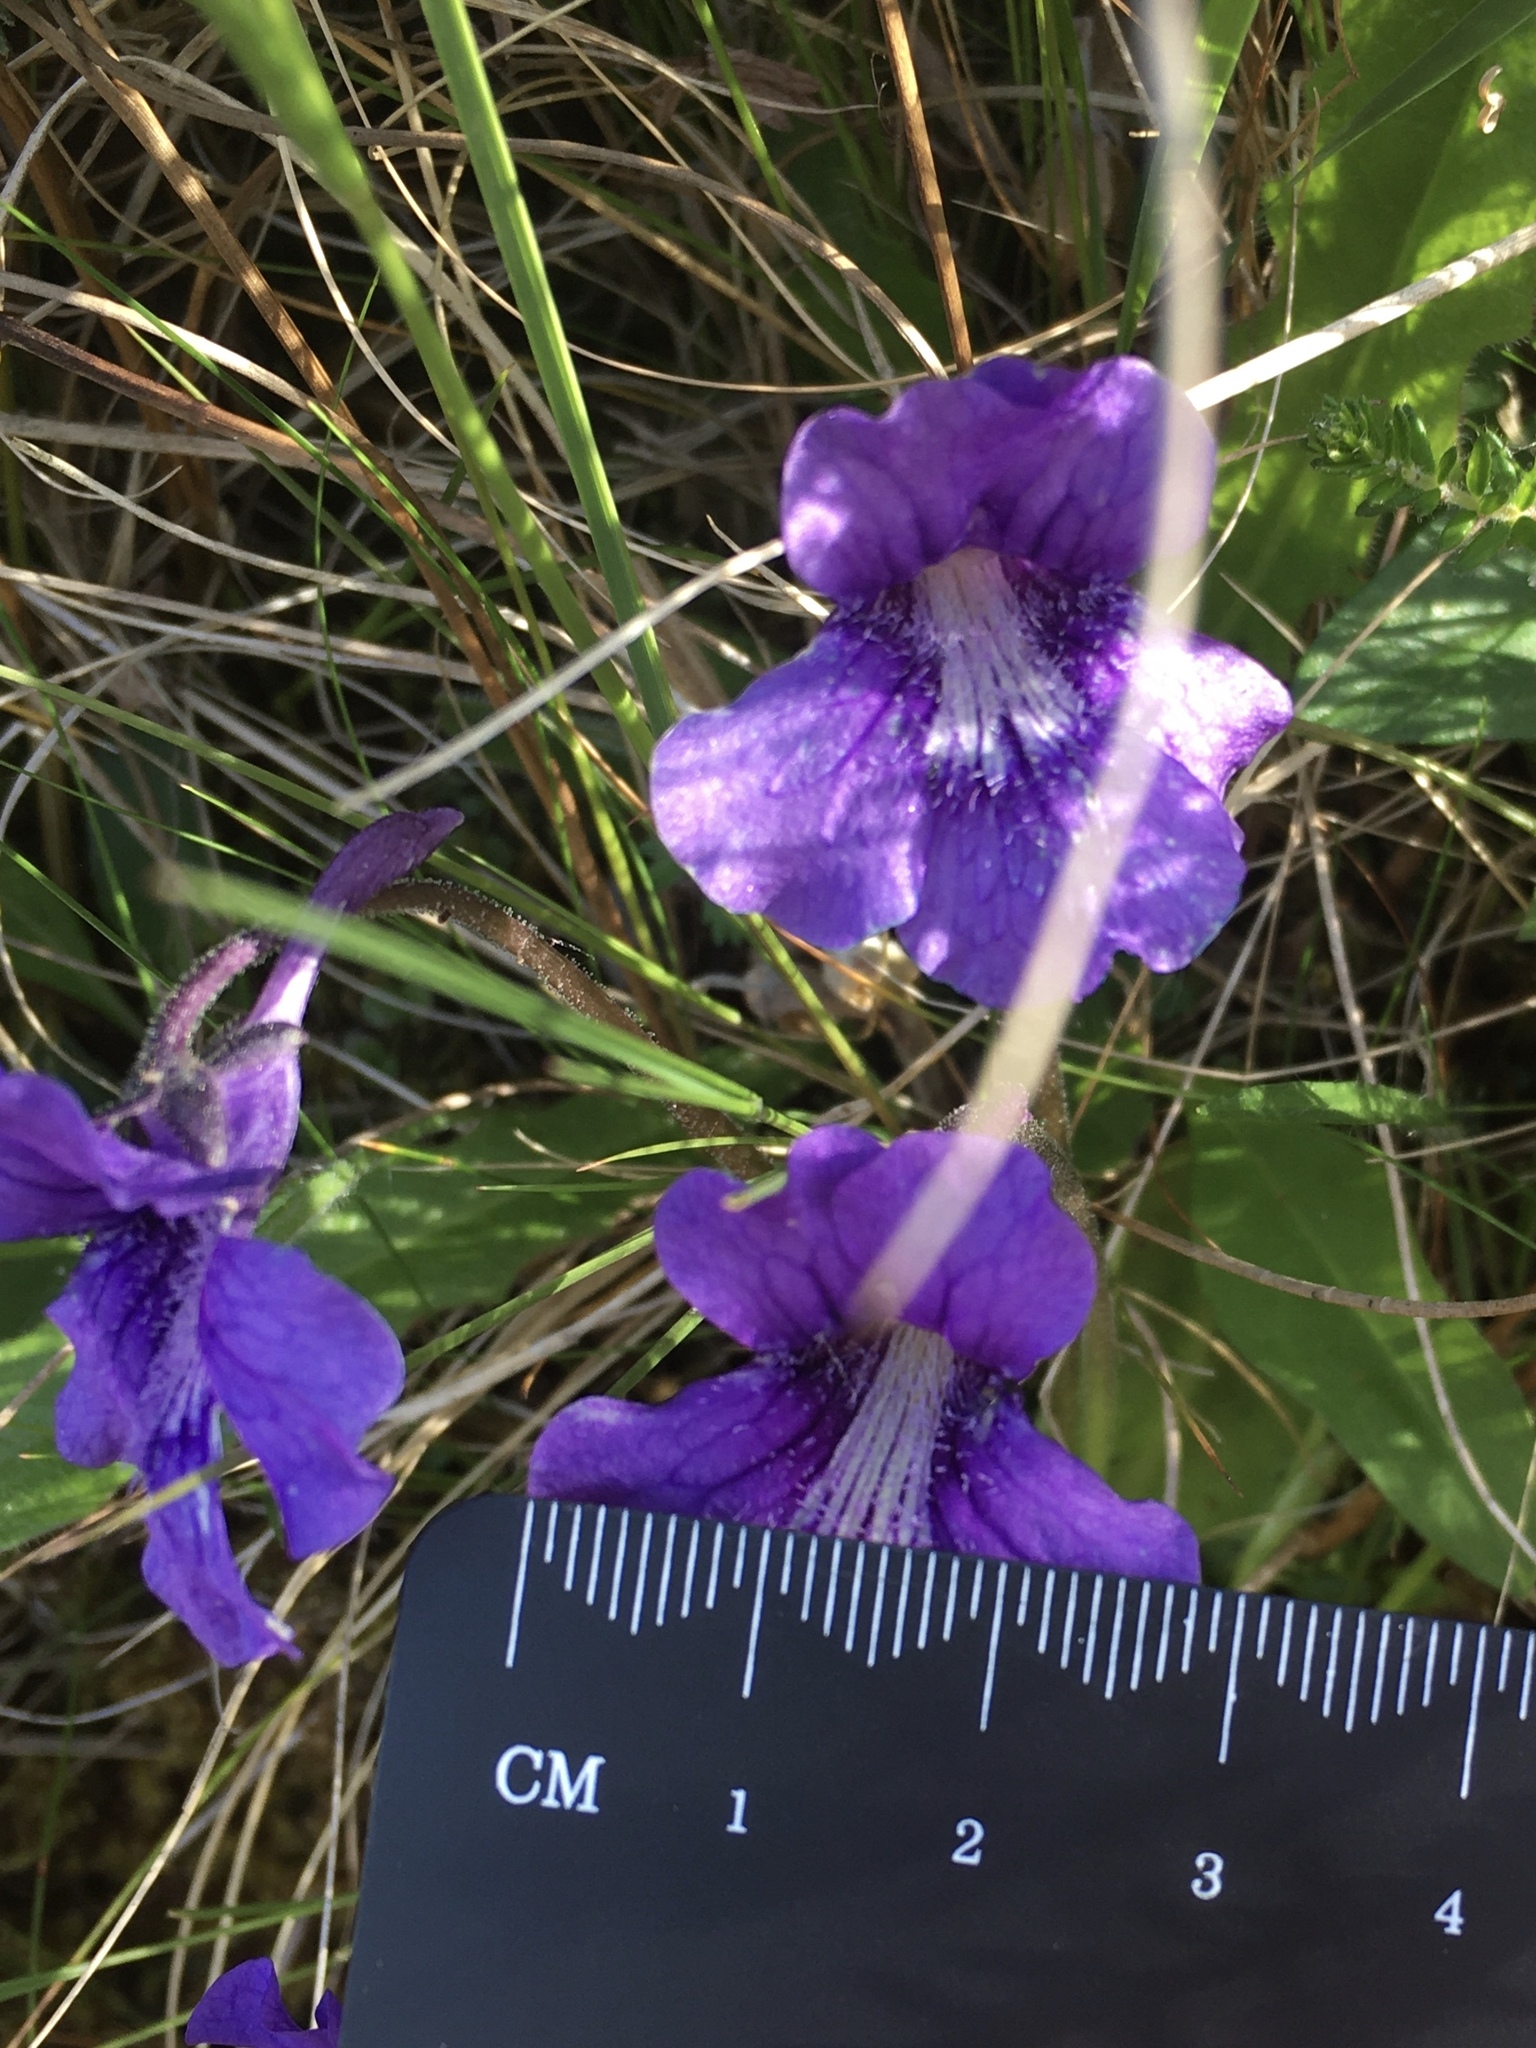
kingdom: Plantae
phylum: Tracheophyta
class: Magnoliopsida
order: Lamiales
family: Lentibulariaceae
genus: Pinguicula
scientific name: Pinguicula grandiflora
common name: Large-flowered butterwort
